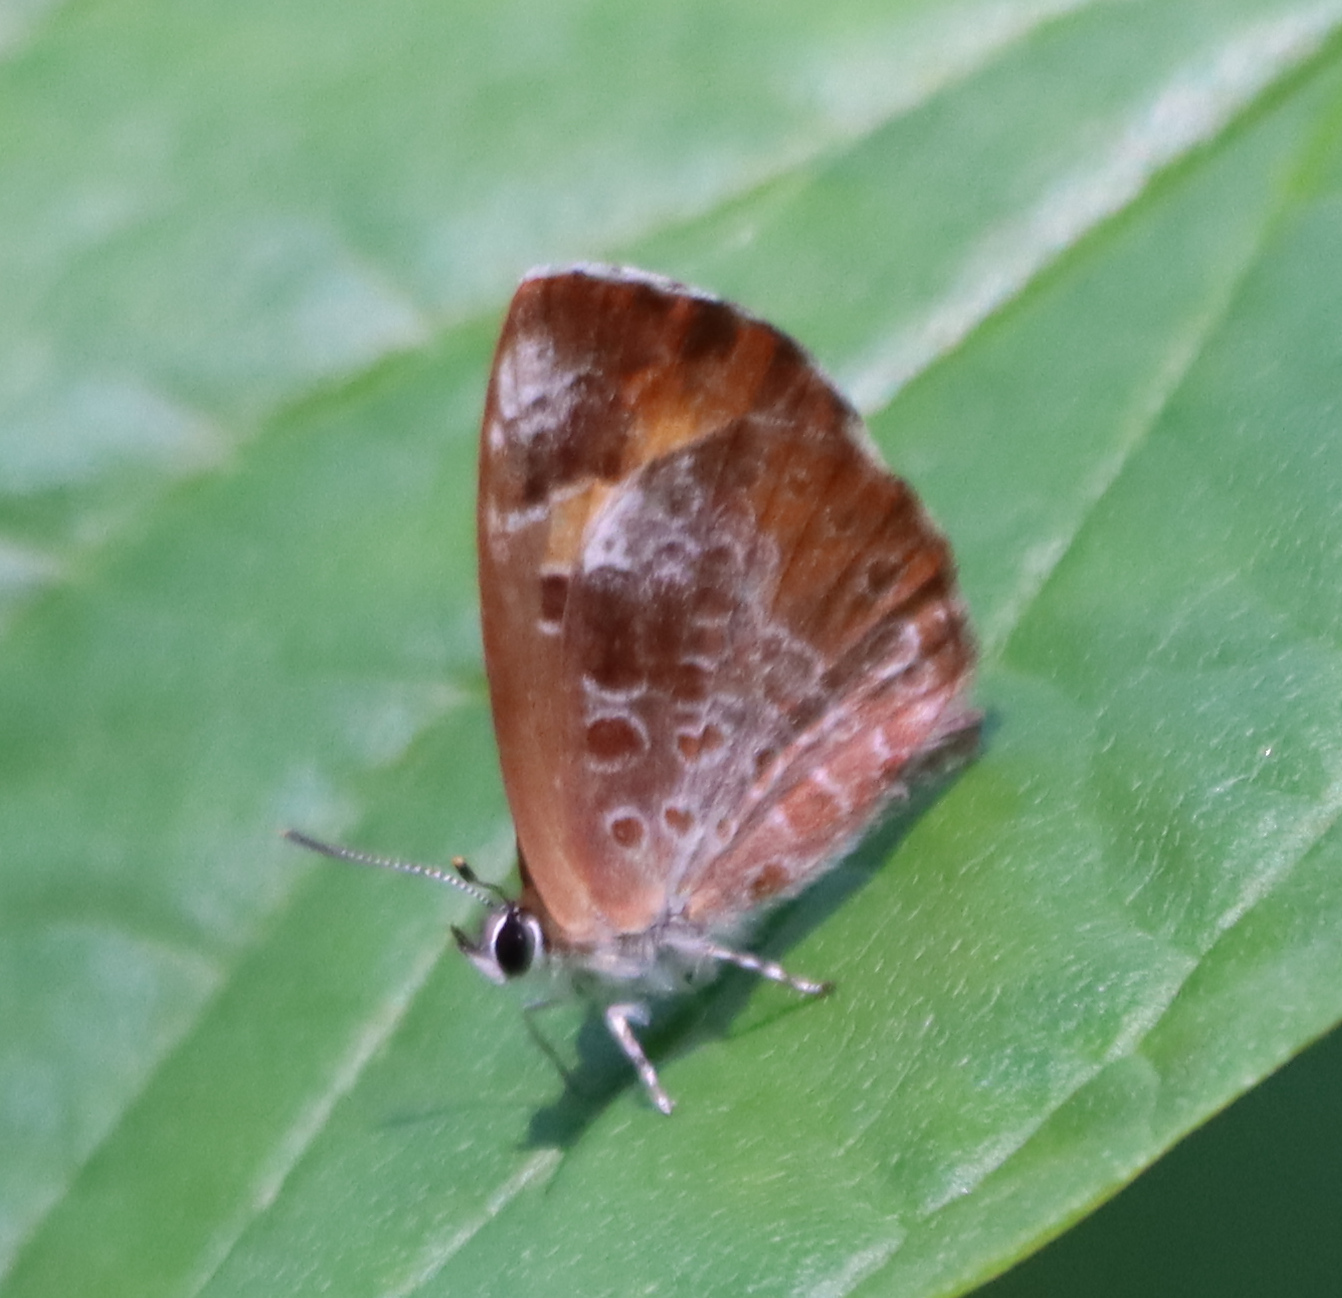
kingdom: Animalia
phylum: Arthropoda
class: Insecta
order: Lepidoptera
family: Lycaenidae
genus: Feniseca
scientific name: Feniseca tarquinius
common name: Harvester
